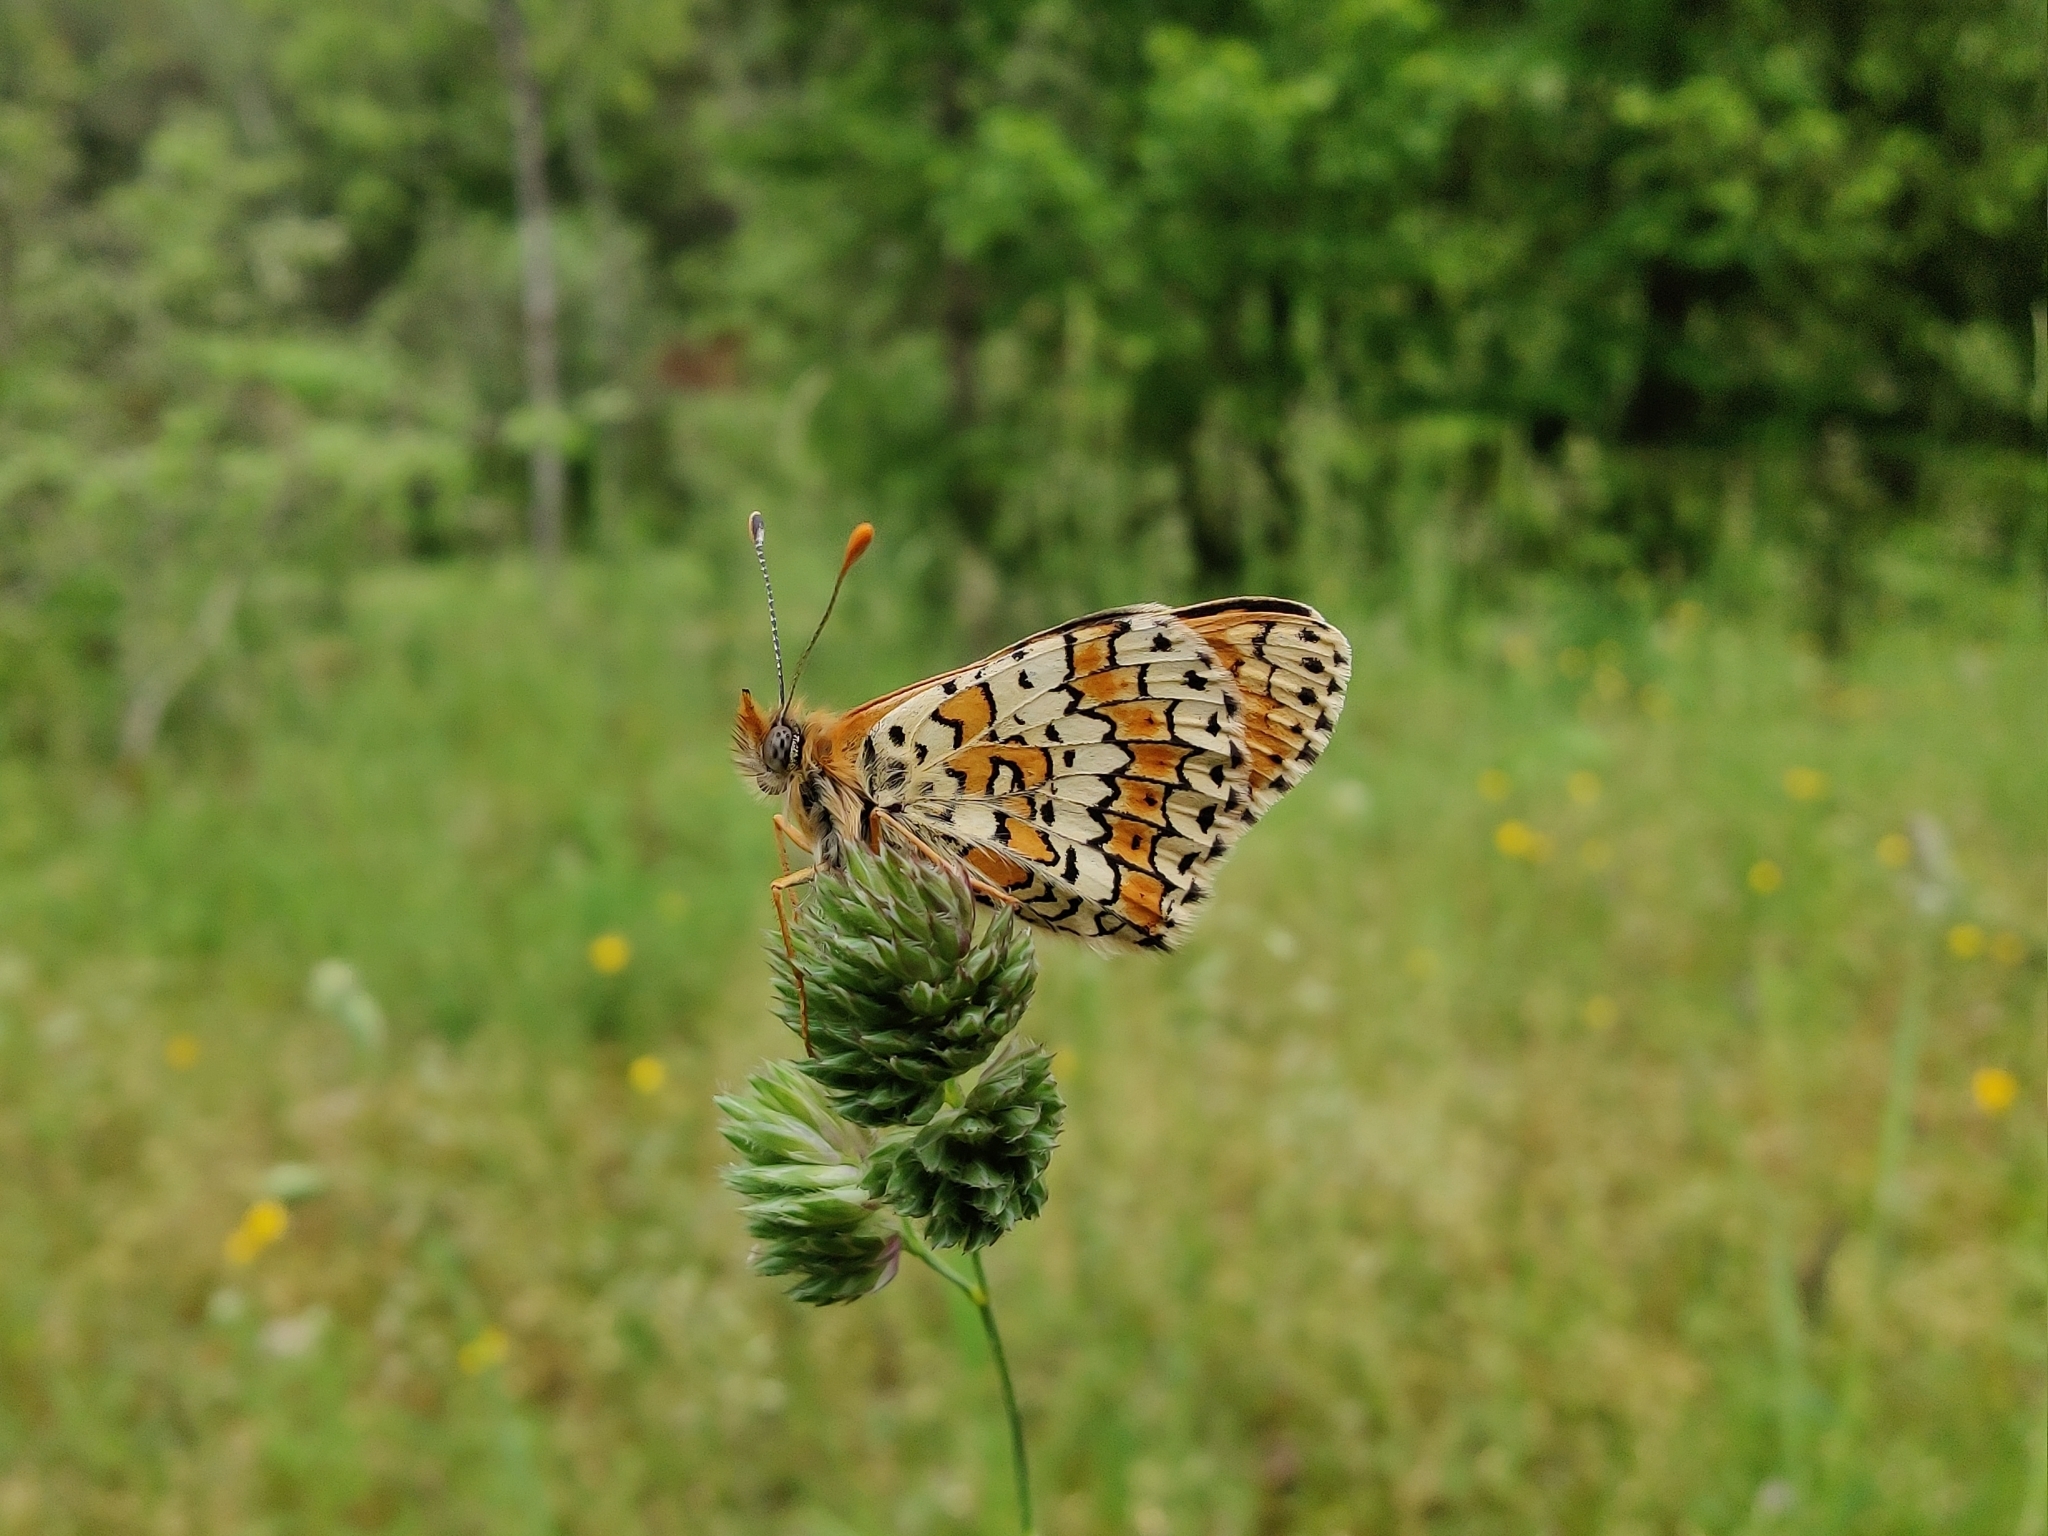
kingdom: Animalia
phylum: Arthropoda
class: Insecta
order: Lepidoptera
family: Nymphalidae
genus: Melitaea
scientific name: Melitaea cinxia
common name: Glanville fritillary
